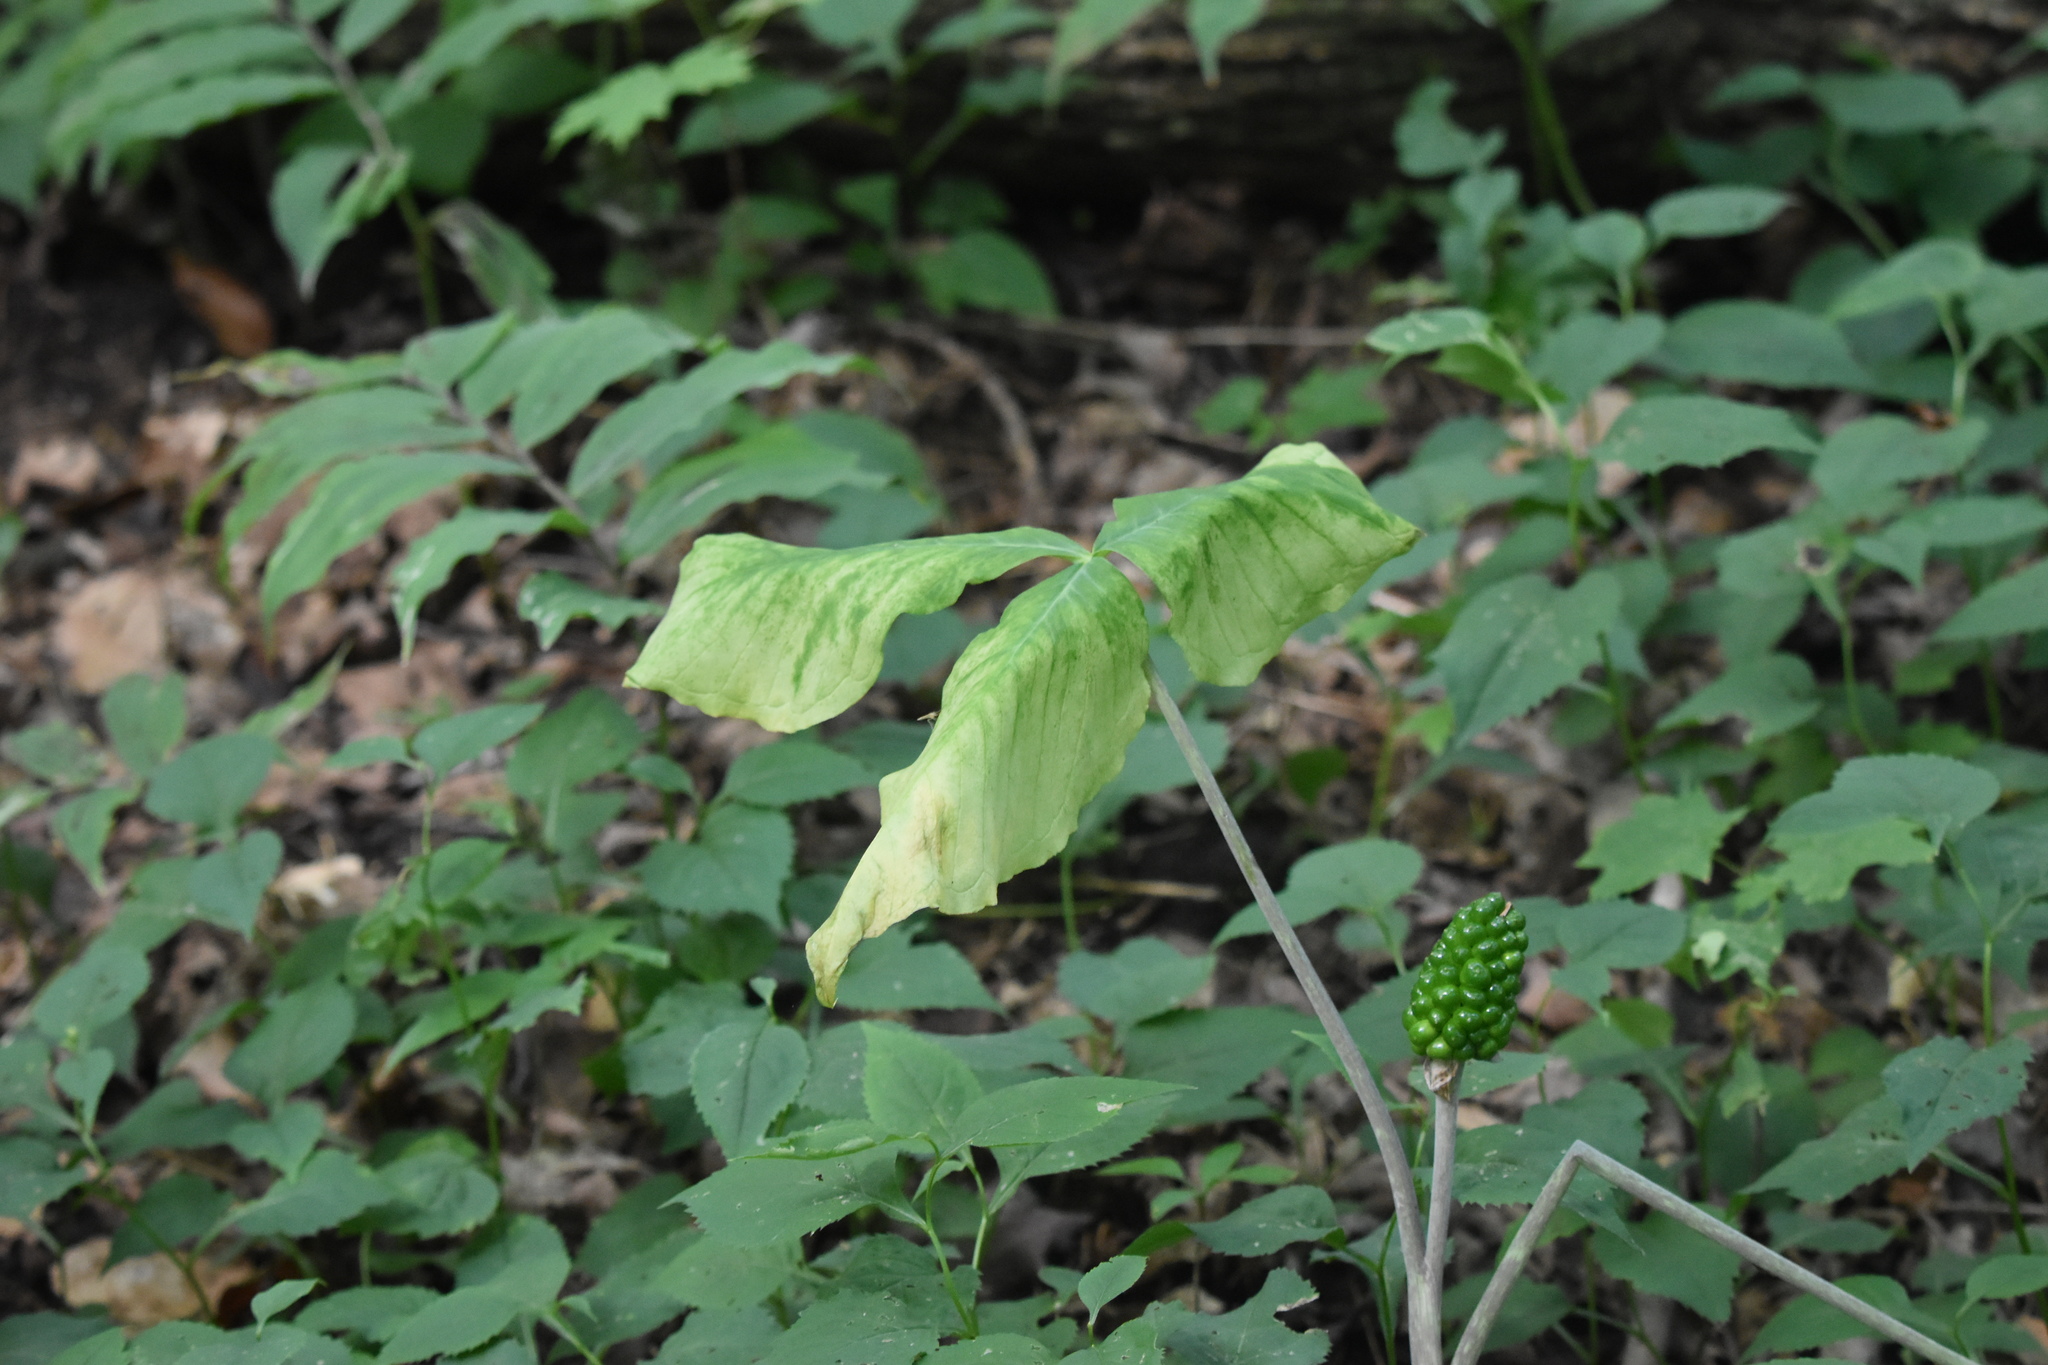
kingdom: Plantae
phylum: Tracheophyta
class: Liliopsida
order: Alismatales
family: Araceae
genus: Arisaema
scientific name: Arisaema triphyllum
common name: Jack-in-the-pulpit
